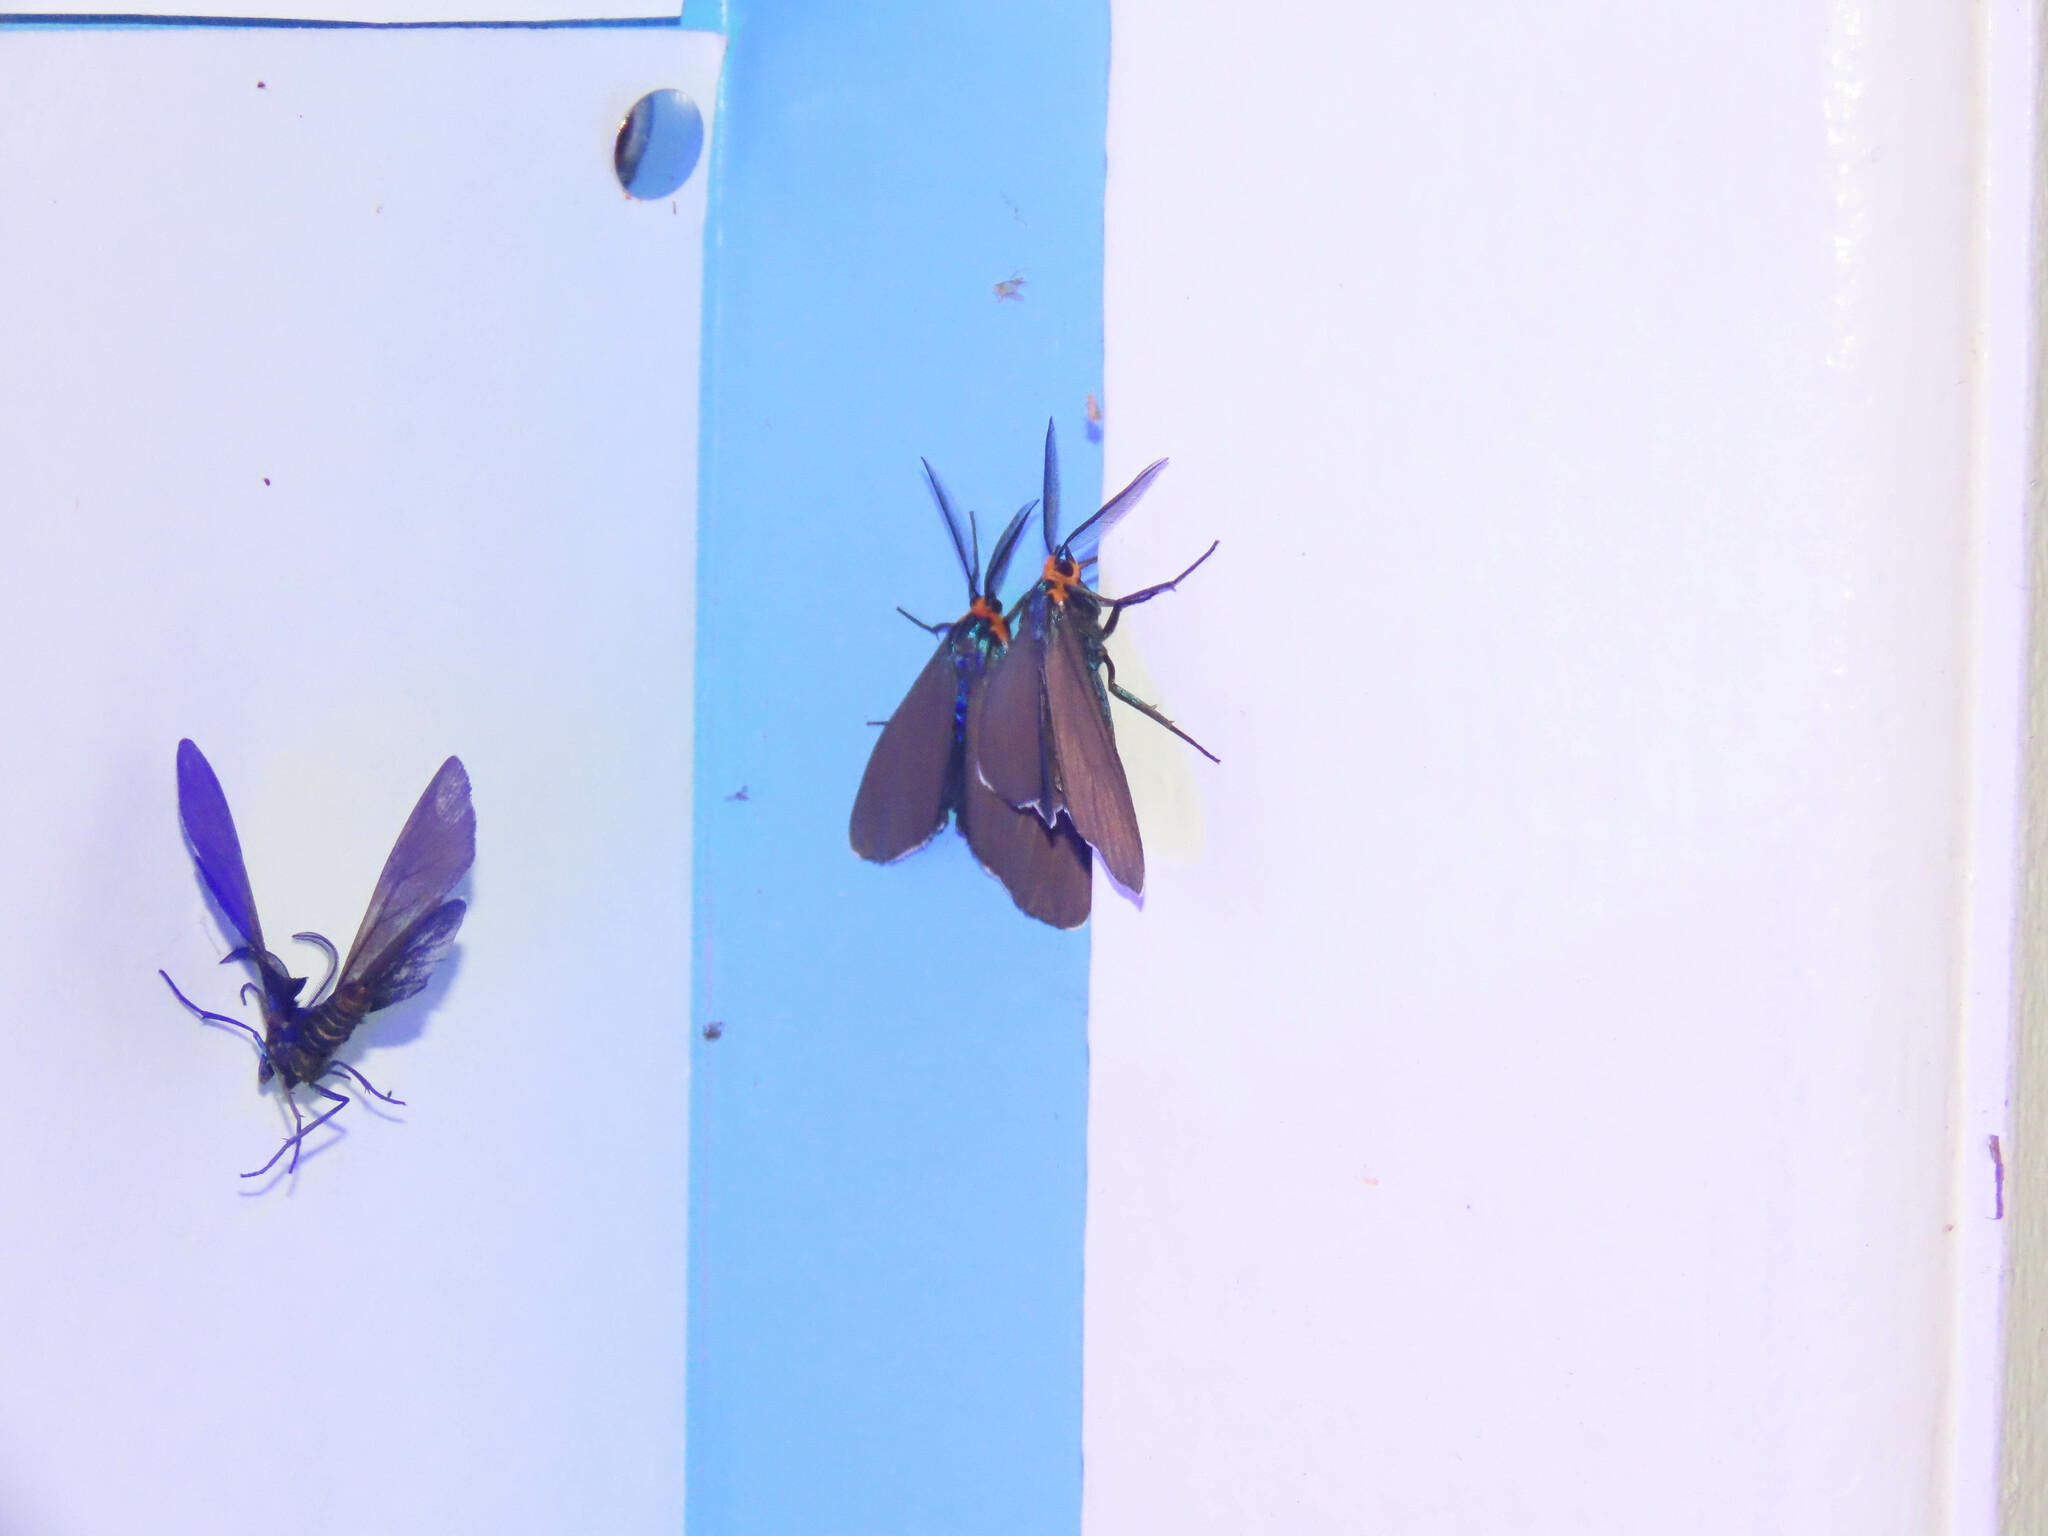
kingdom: Animalia
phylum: Arthropoda
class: Insecta
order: Lepidoptera
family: Erebidae
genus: Ctenucha
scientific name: Ctenucha virginica
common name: Virginia ctenucha moth
